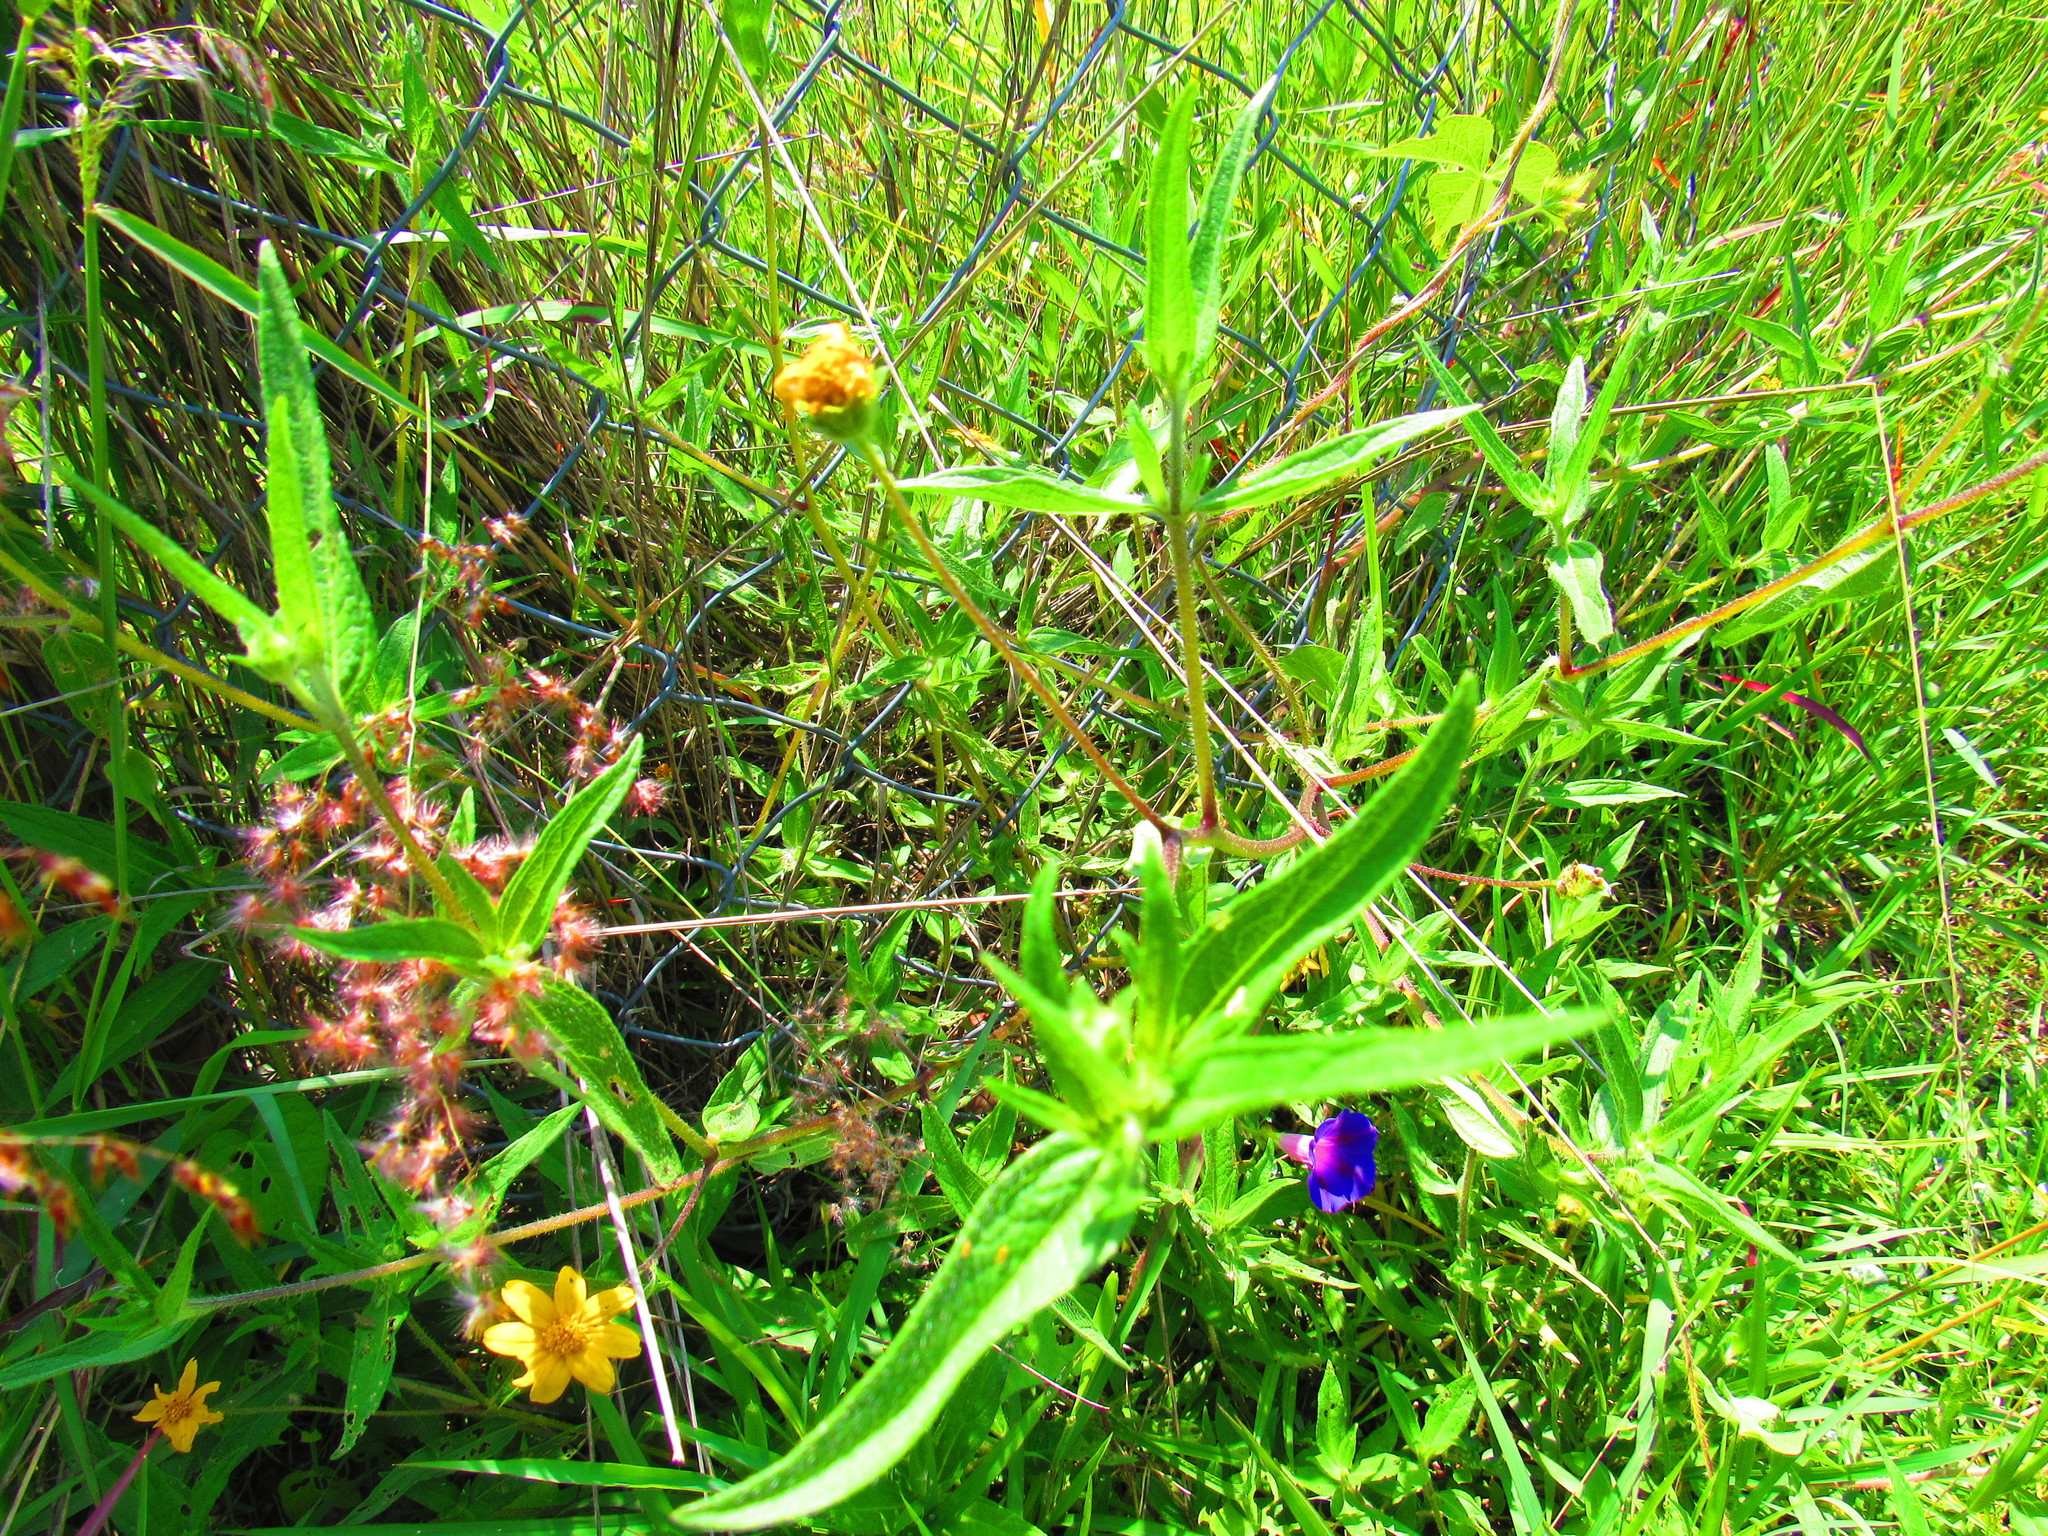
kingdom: Plantae
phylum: Tracheophyta
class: Magnoliopsida
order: Asterales
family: Asteraceae
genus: Aldama
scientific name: Aldama dentata
